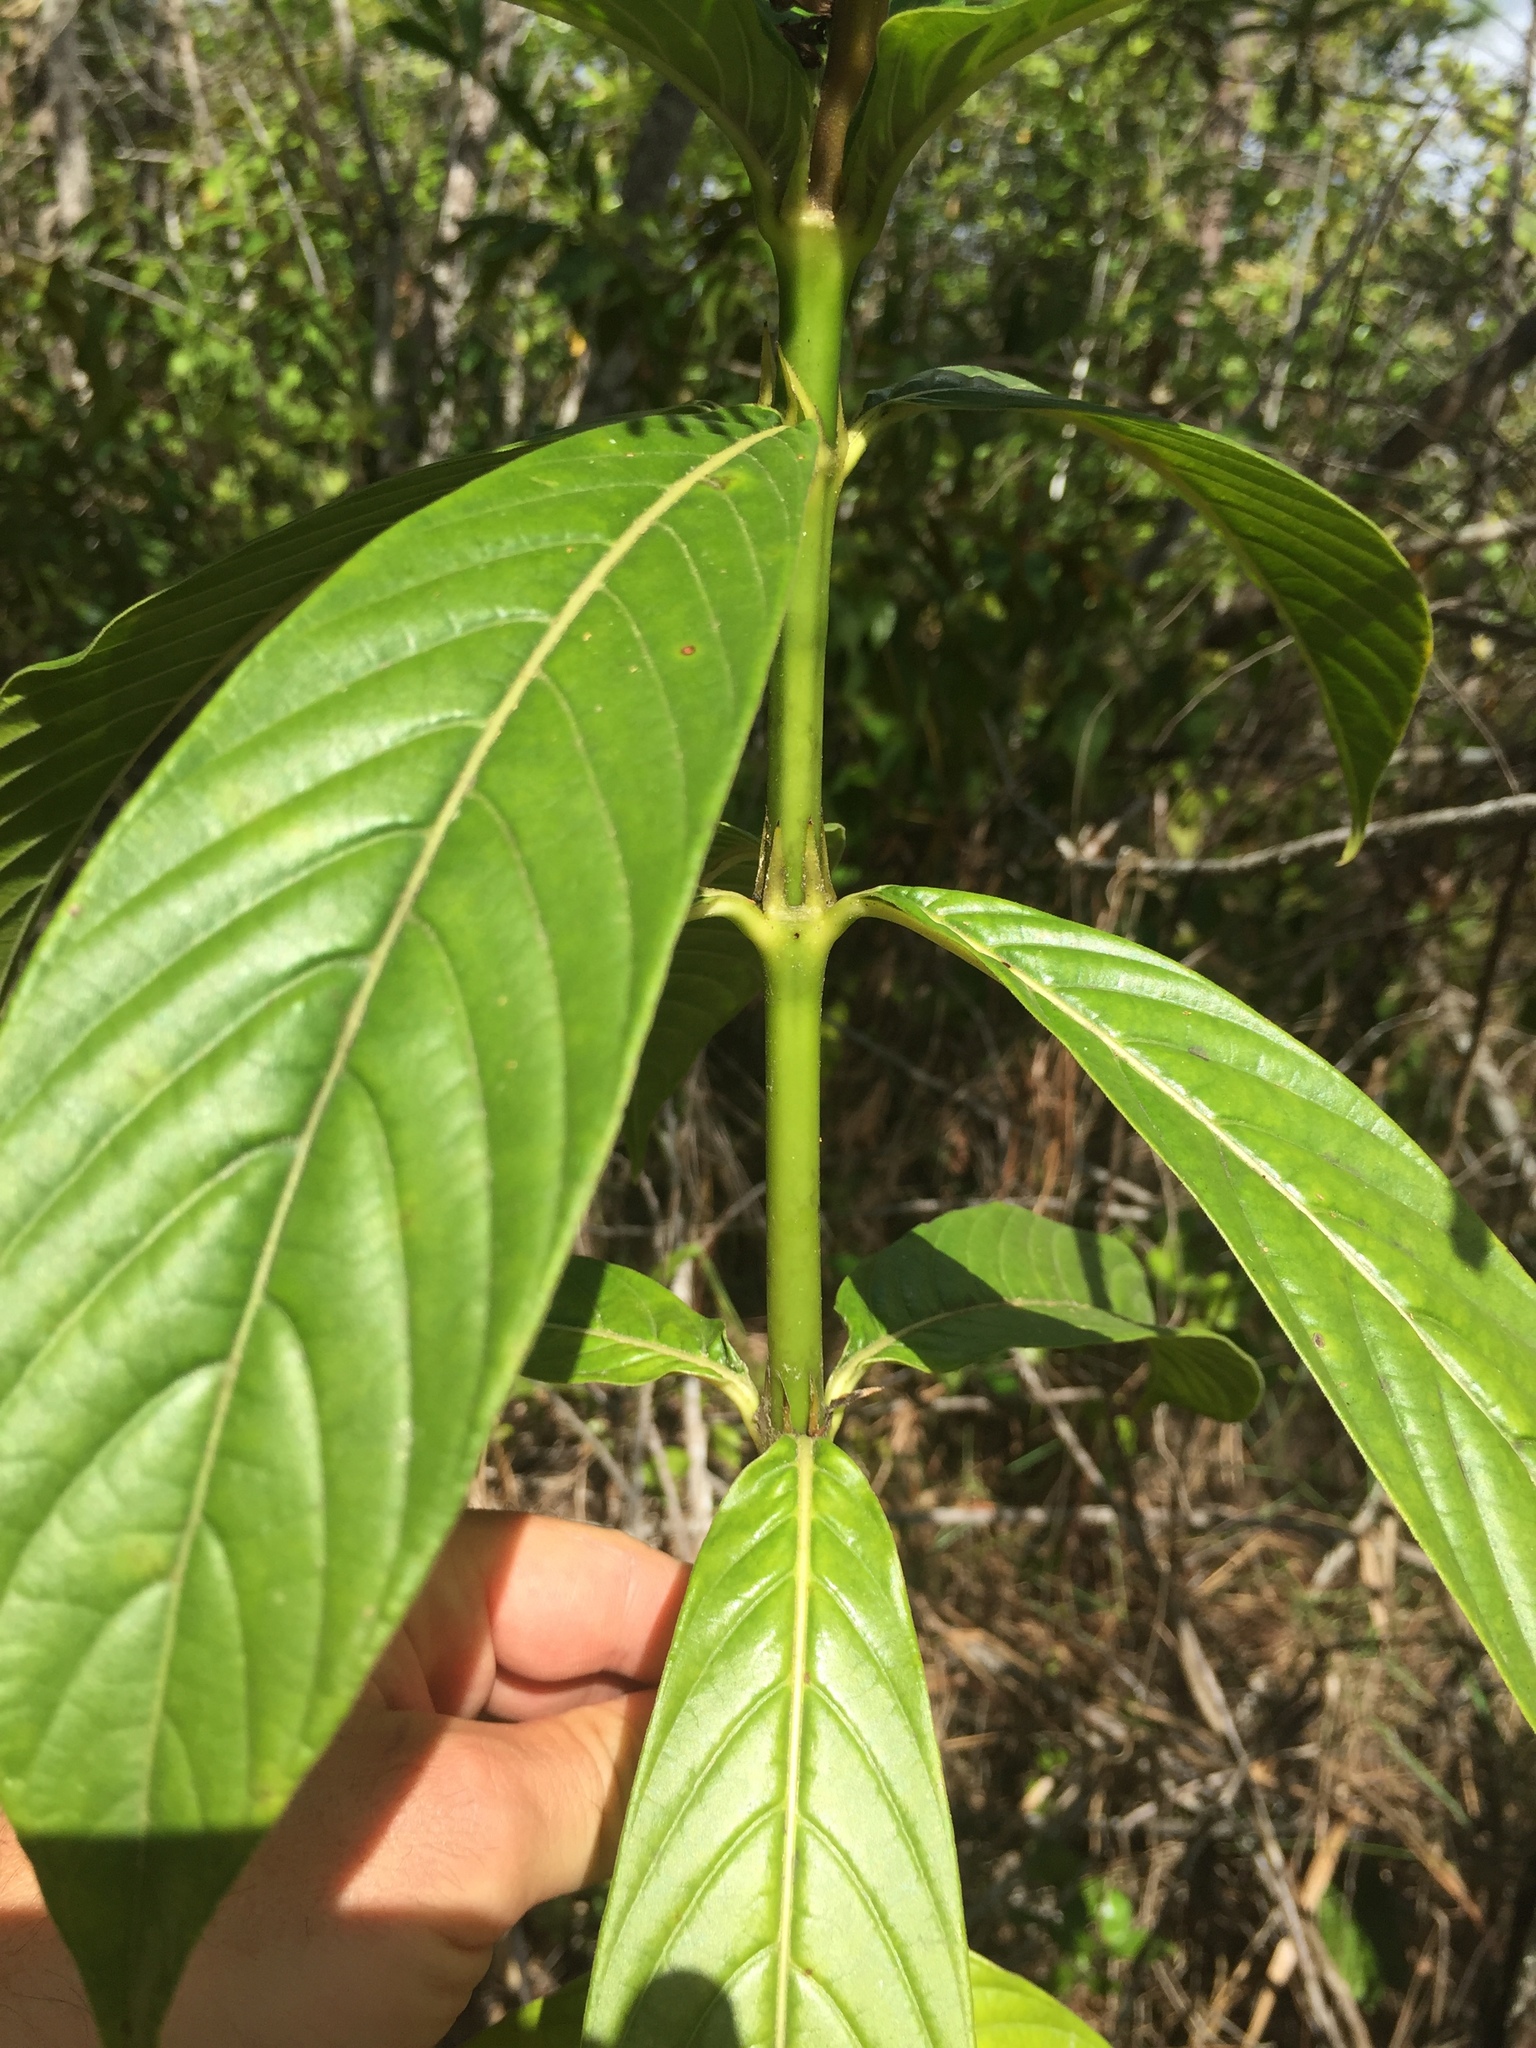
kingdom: Plantae
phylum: Tracheophyta
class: Magnoliopsida
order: Gentianales
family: Rubiaceae
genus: Hamelia
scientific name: Hamelia patens
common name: Redhead
